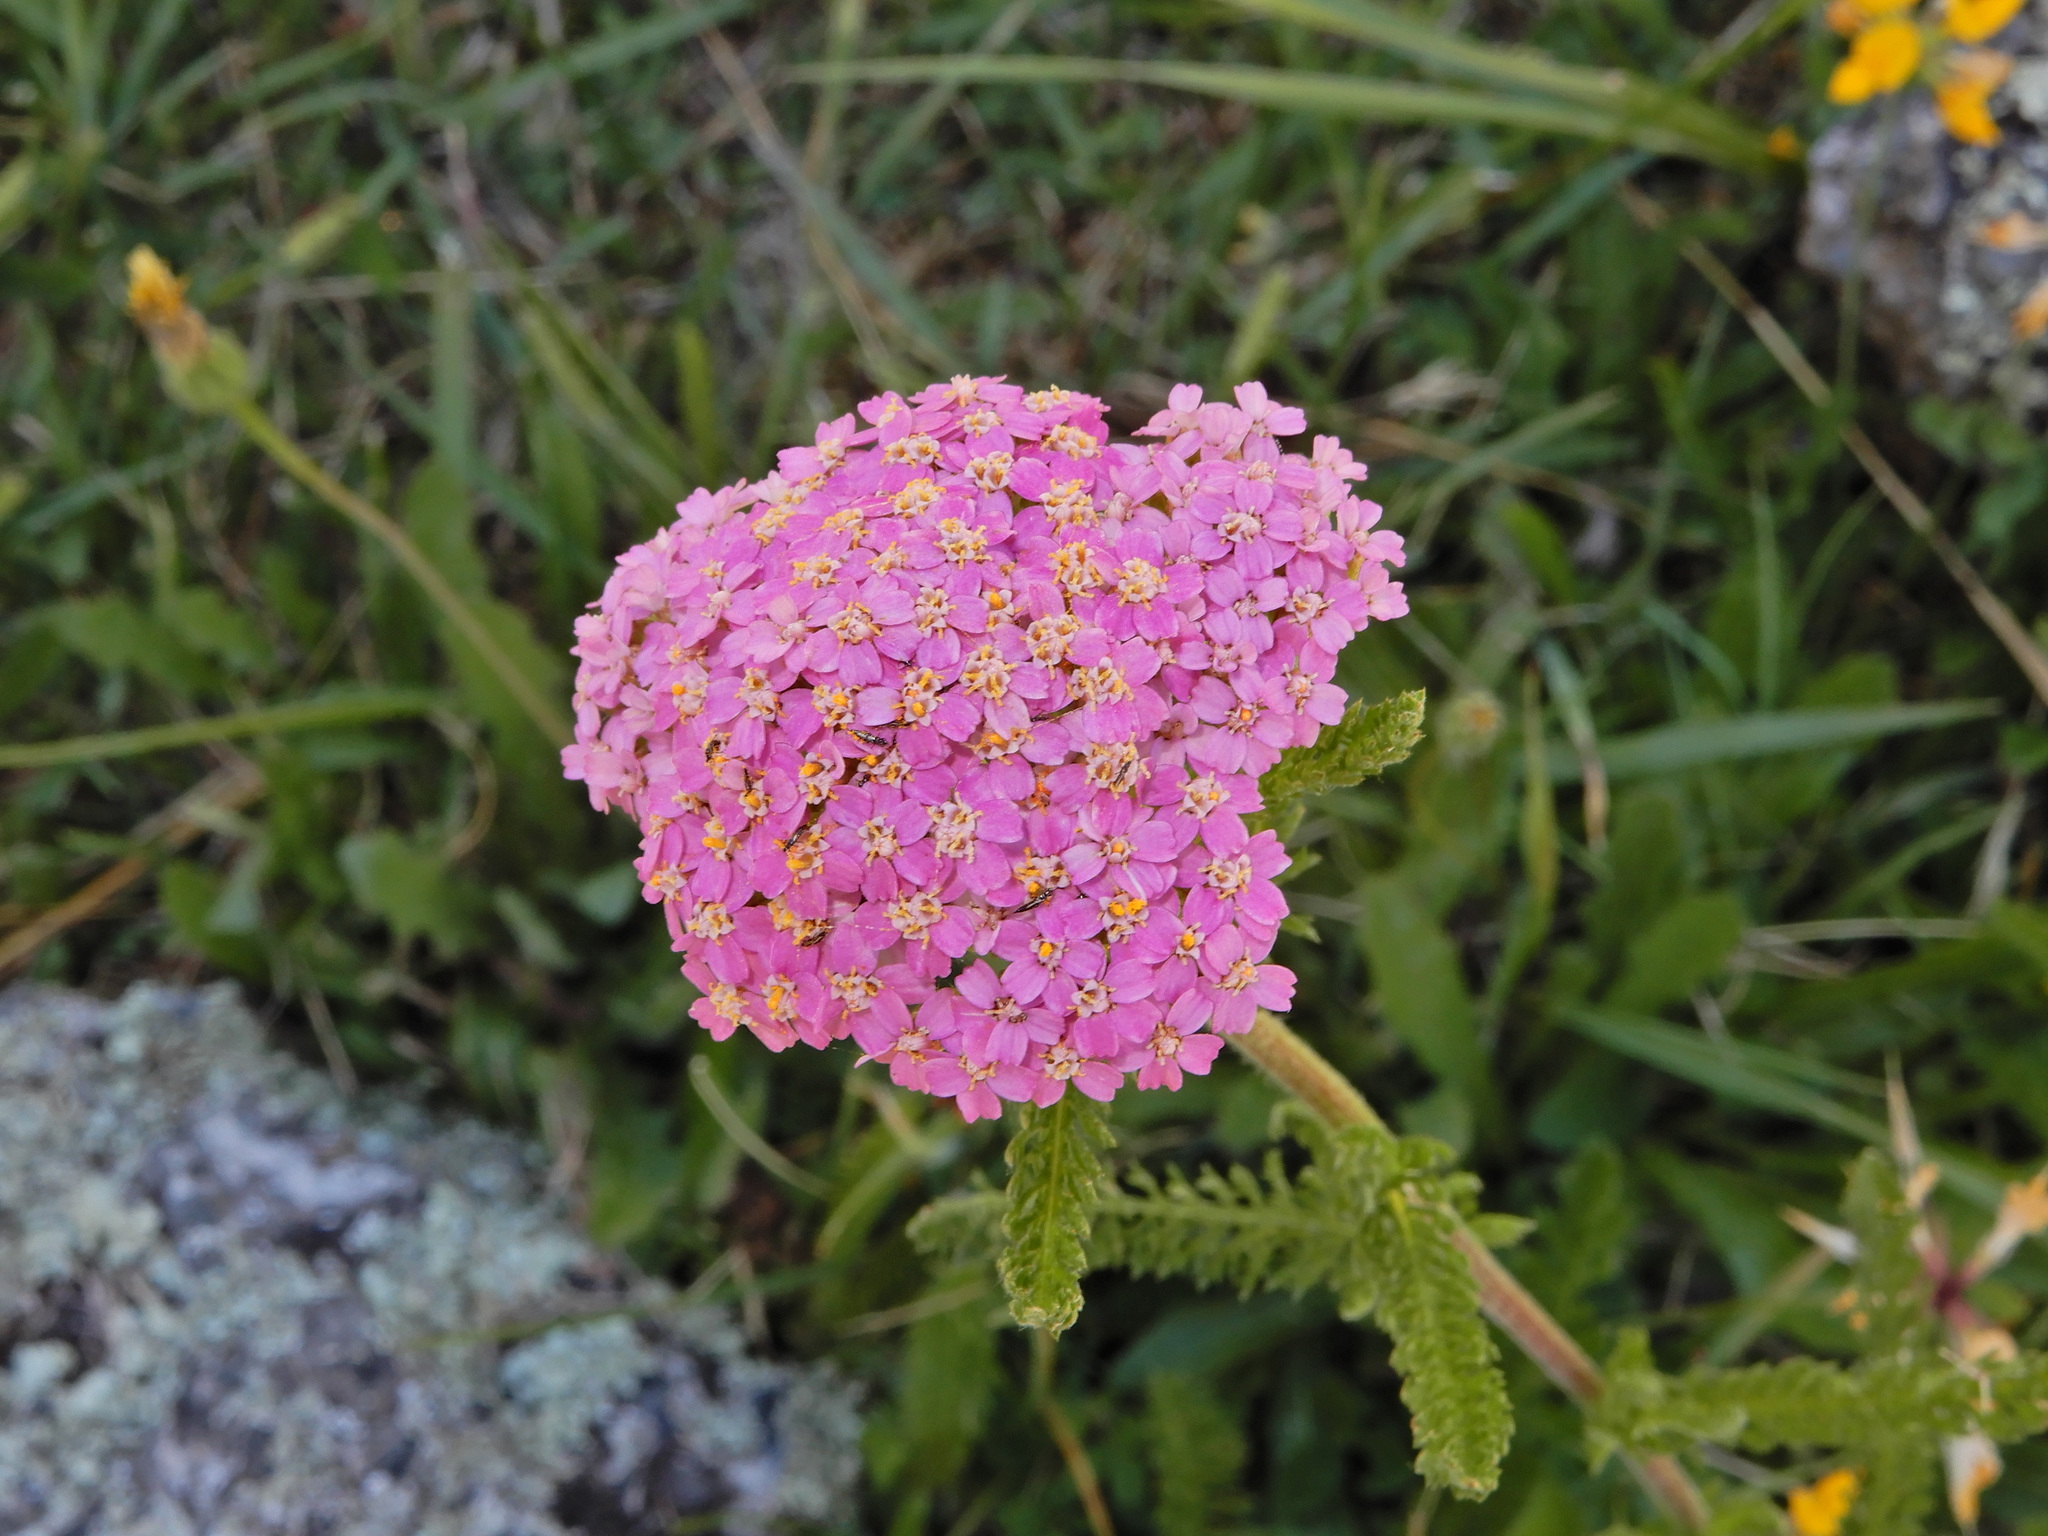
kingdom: Plantae
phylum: Tracheophyta
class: Magnoliopsida
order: Asterales
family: Asteraceae
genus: Achillea
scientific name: Achillea millefolium
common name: Yarrow
